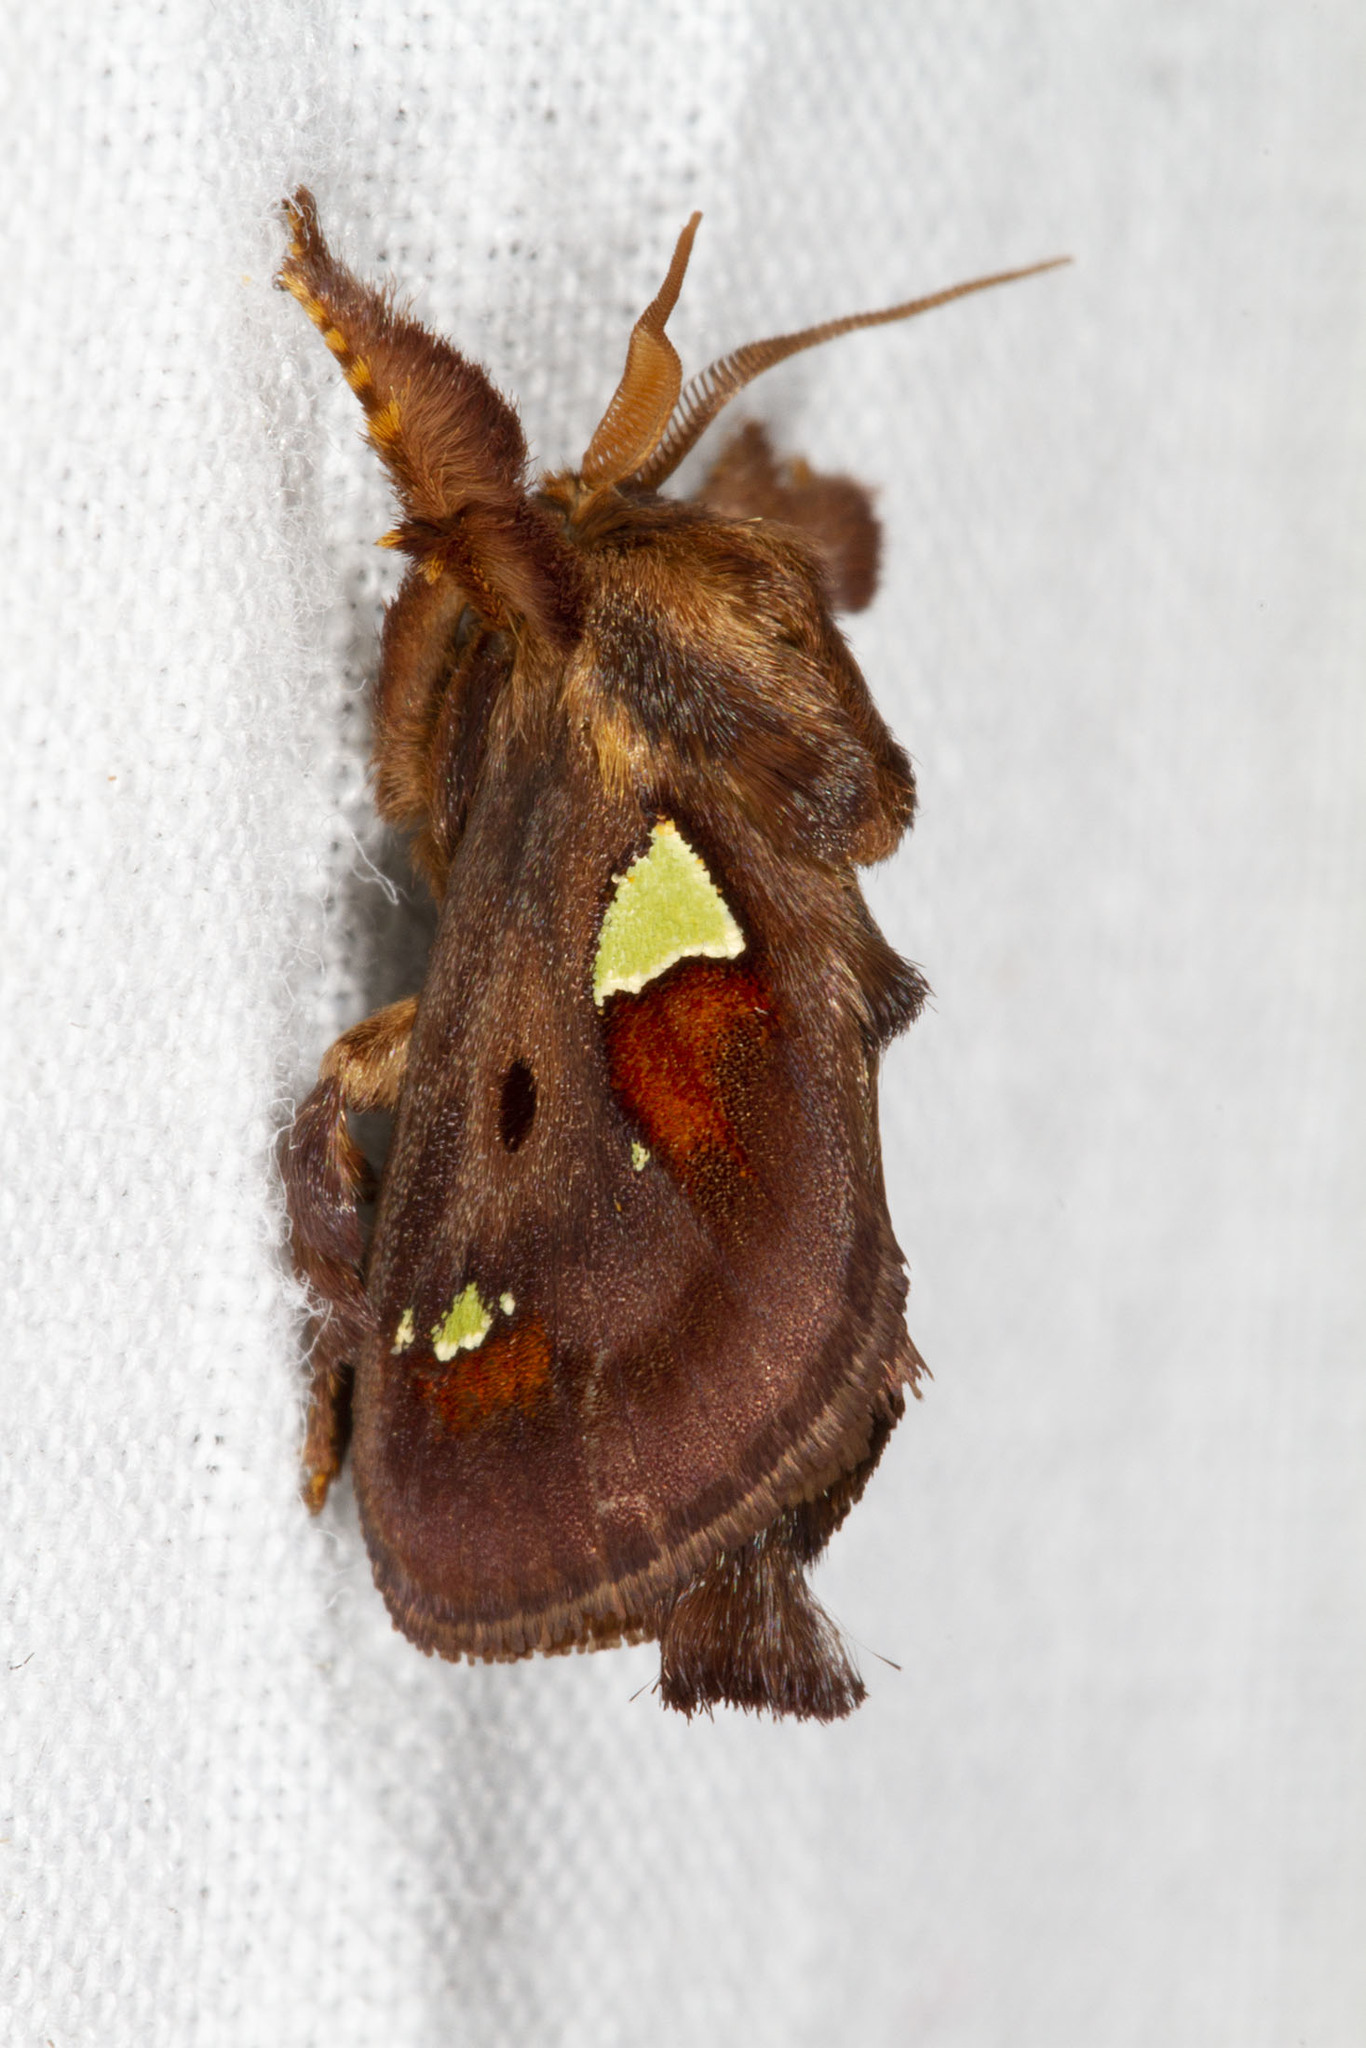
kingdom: Animalia
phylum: Arthropoda
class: Insecta
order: Lepidoptera
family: Limacodidae
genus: Euclea
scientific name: Euclea delphinii
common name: Spiny oak-slug moth
